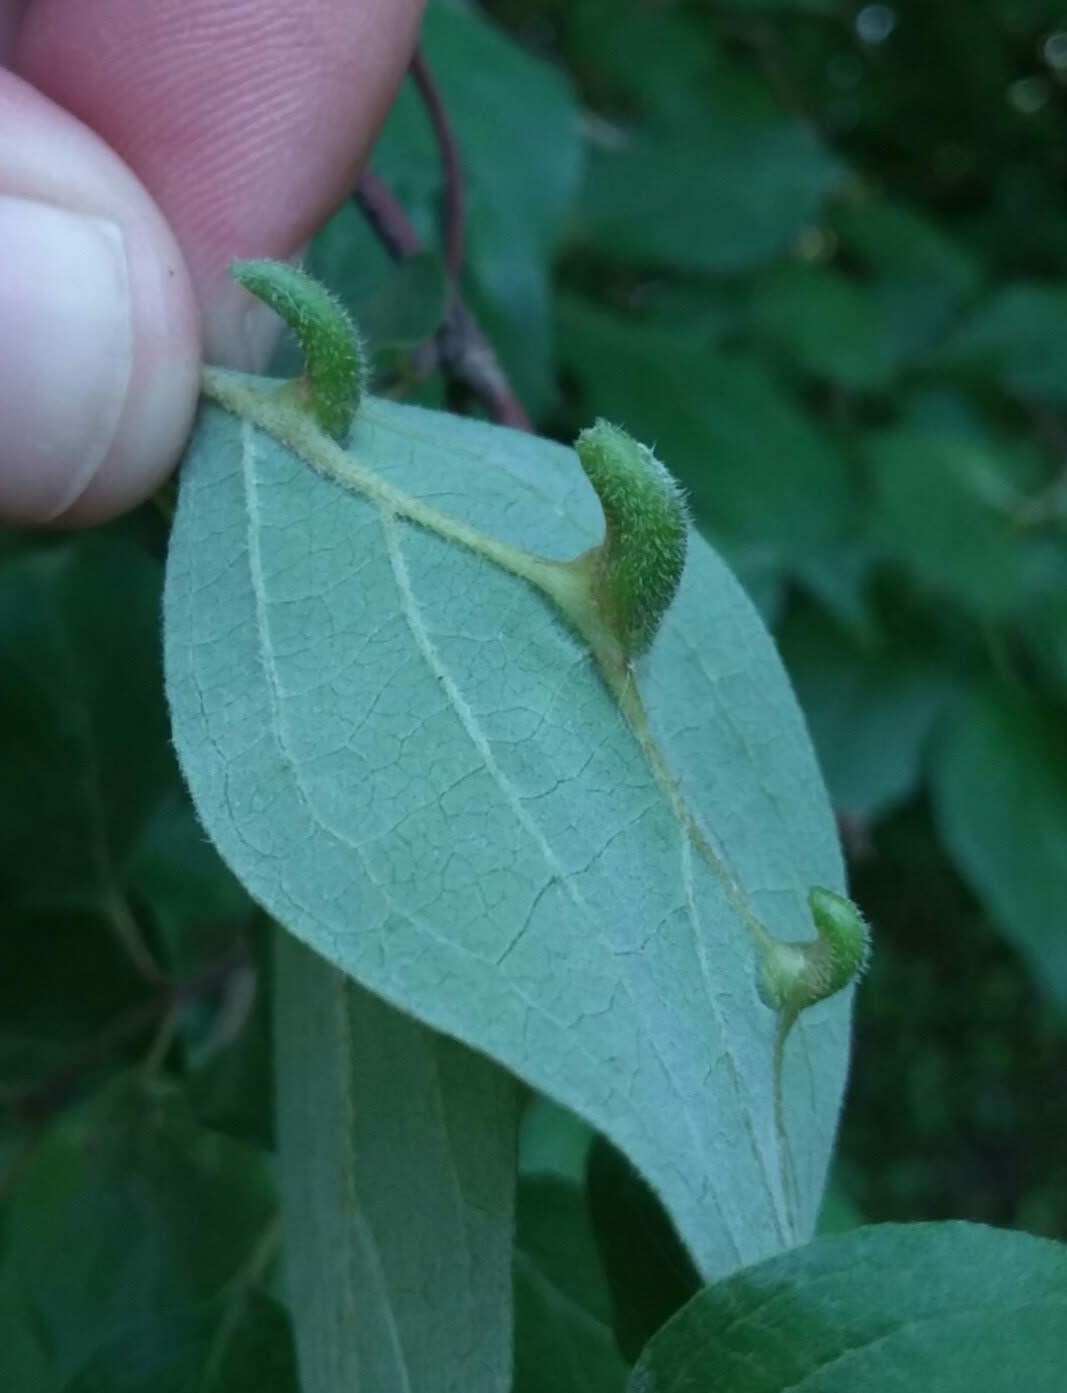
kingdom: Animalia
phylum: Arthropoda
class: Insecta
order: Diptera
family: Cecidomyiidae
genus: Dasineura
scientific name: Dasineura tuba
